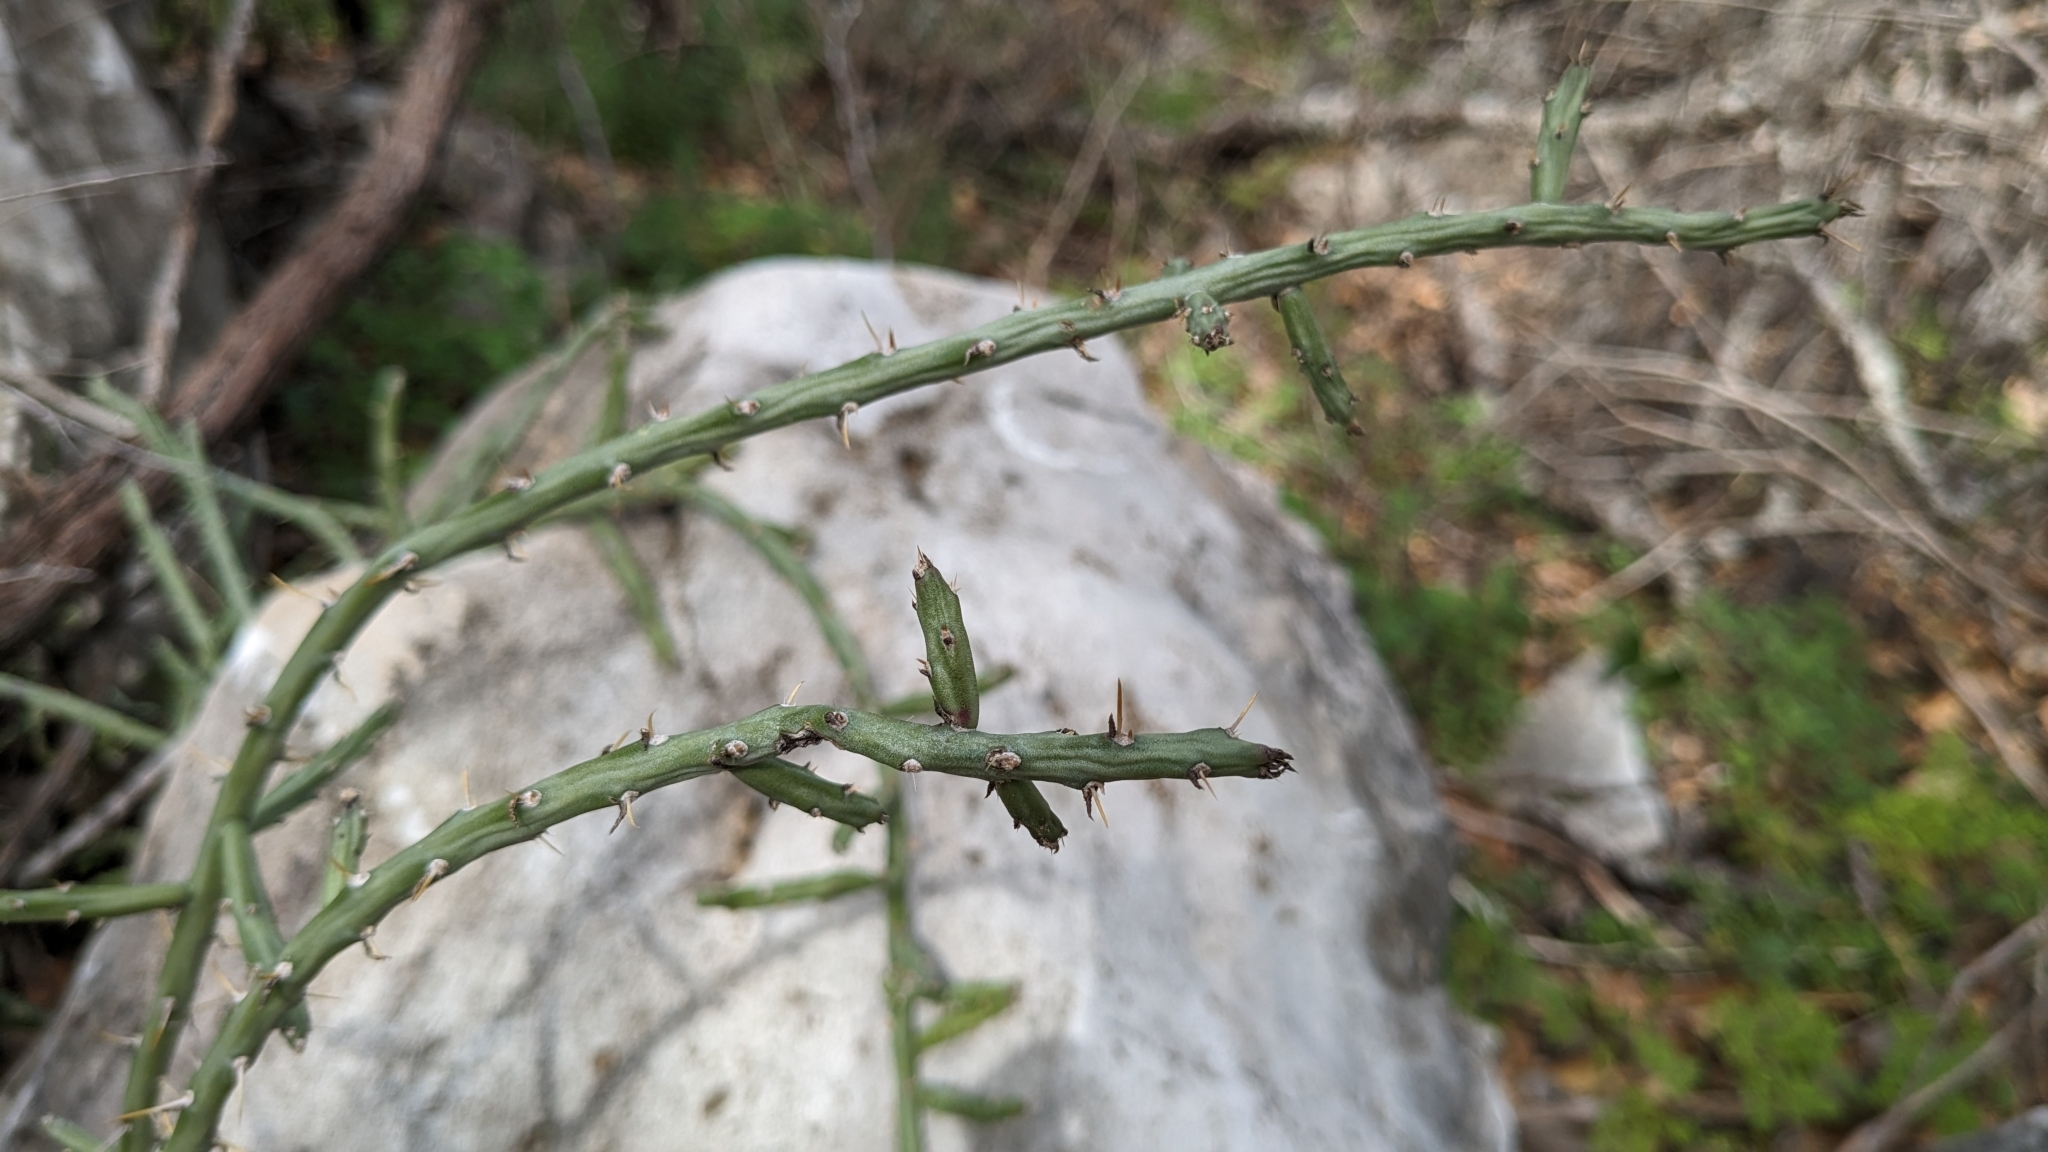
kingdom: Plantae
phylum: Tracheophyta
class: Magnoliopsida
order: Caryophyllales
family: Cactaceae
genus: Cylindropuntia
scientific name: Cylindropuntia leptocaulis
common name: Christmas cactus
